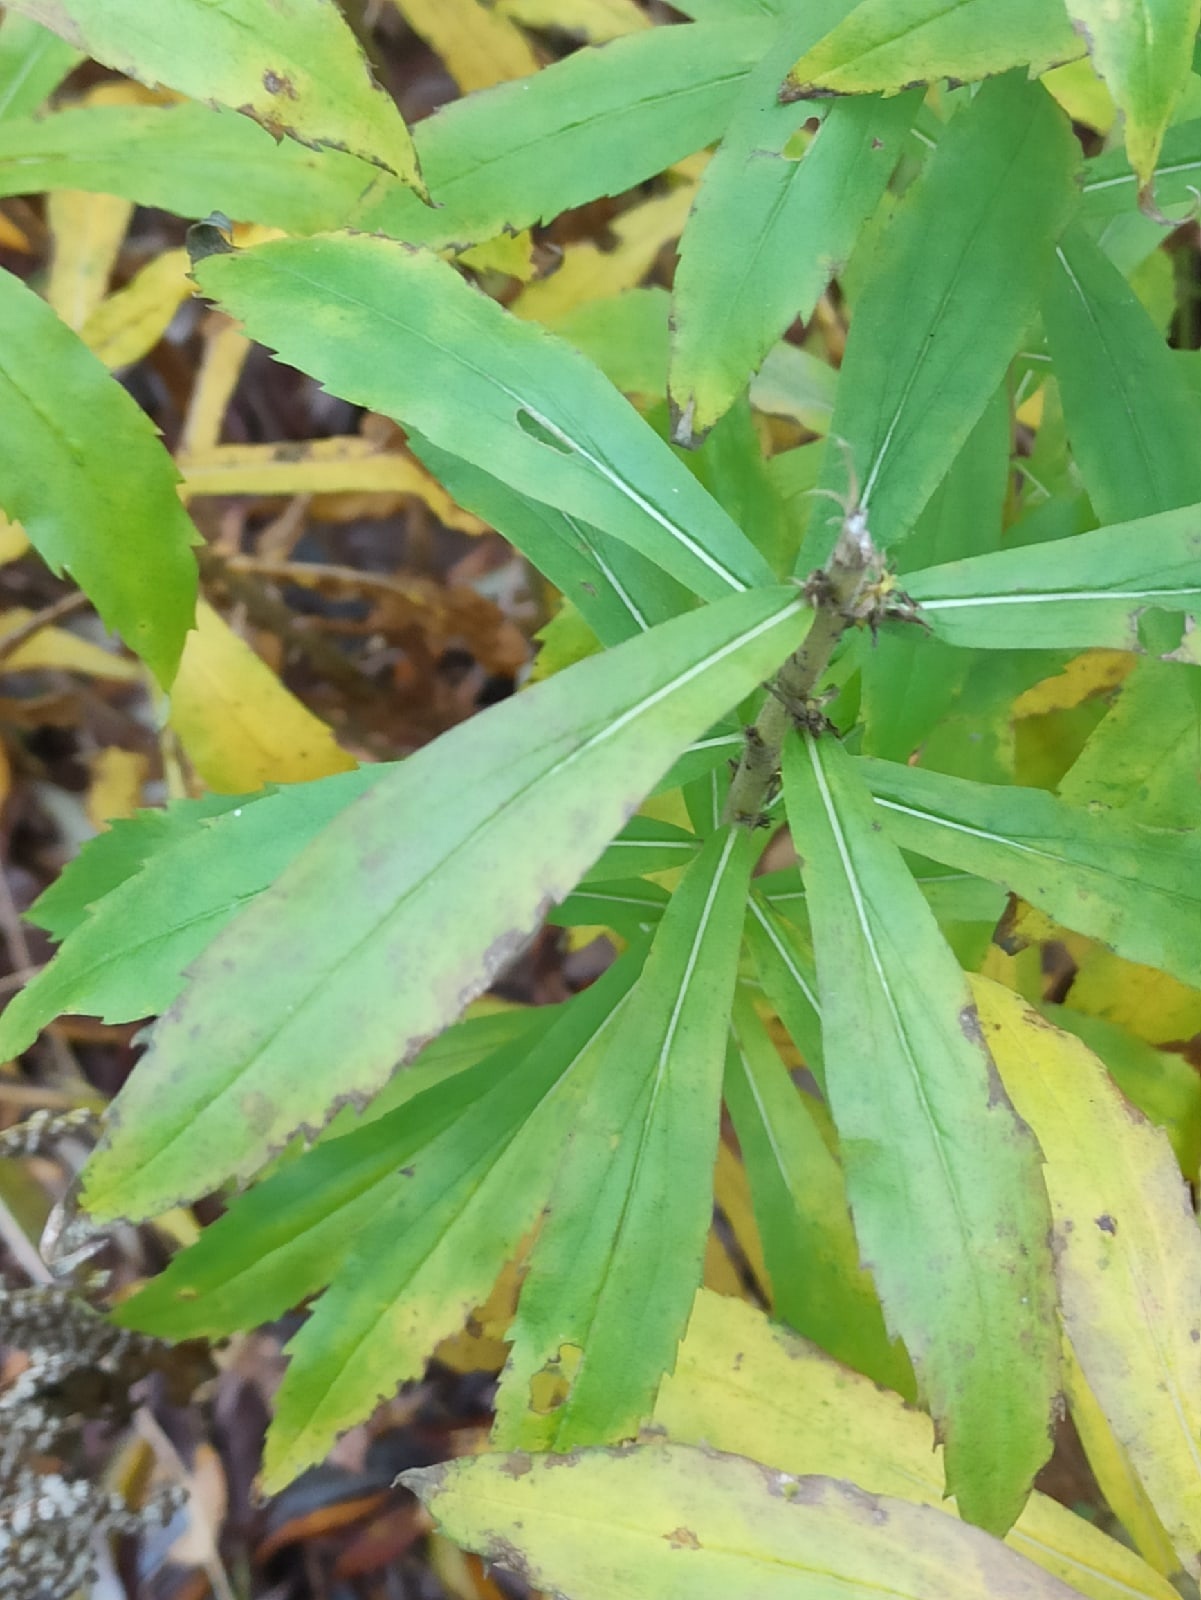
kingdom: Plantae
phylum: Tracheophyta
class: Magnoliopsida
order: Asterales
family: Asteraceae
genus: Solidago
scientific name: Solidago canadensis
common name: Canada goldenrod
